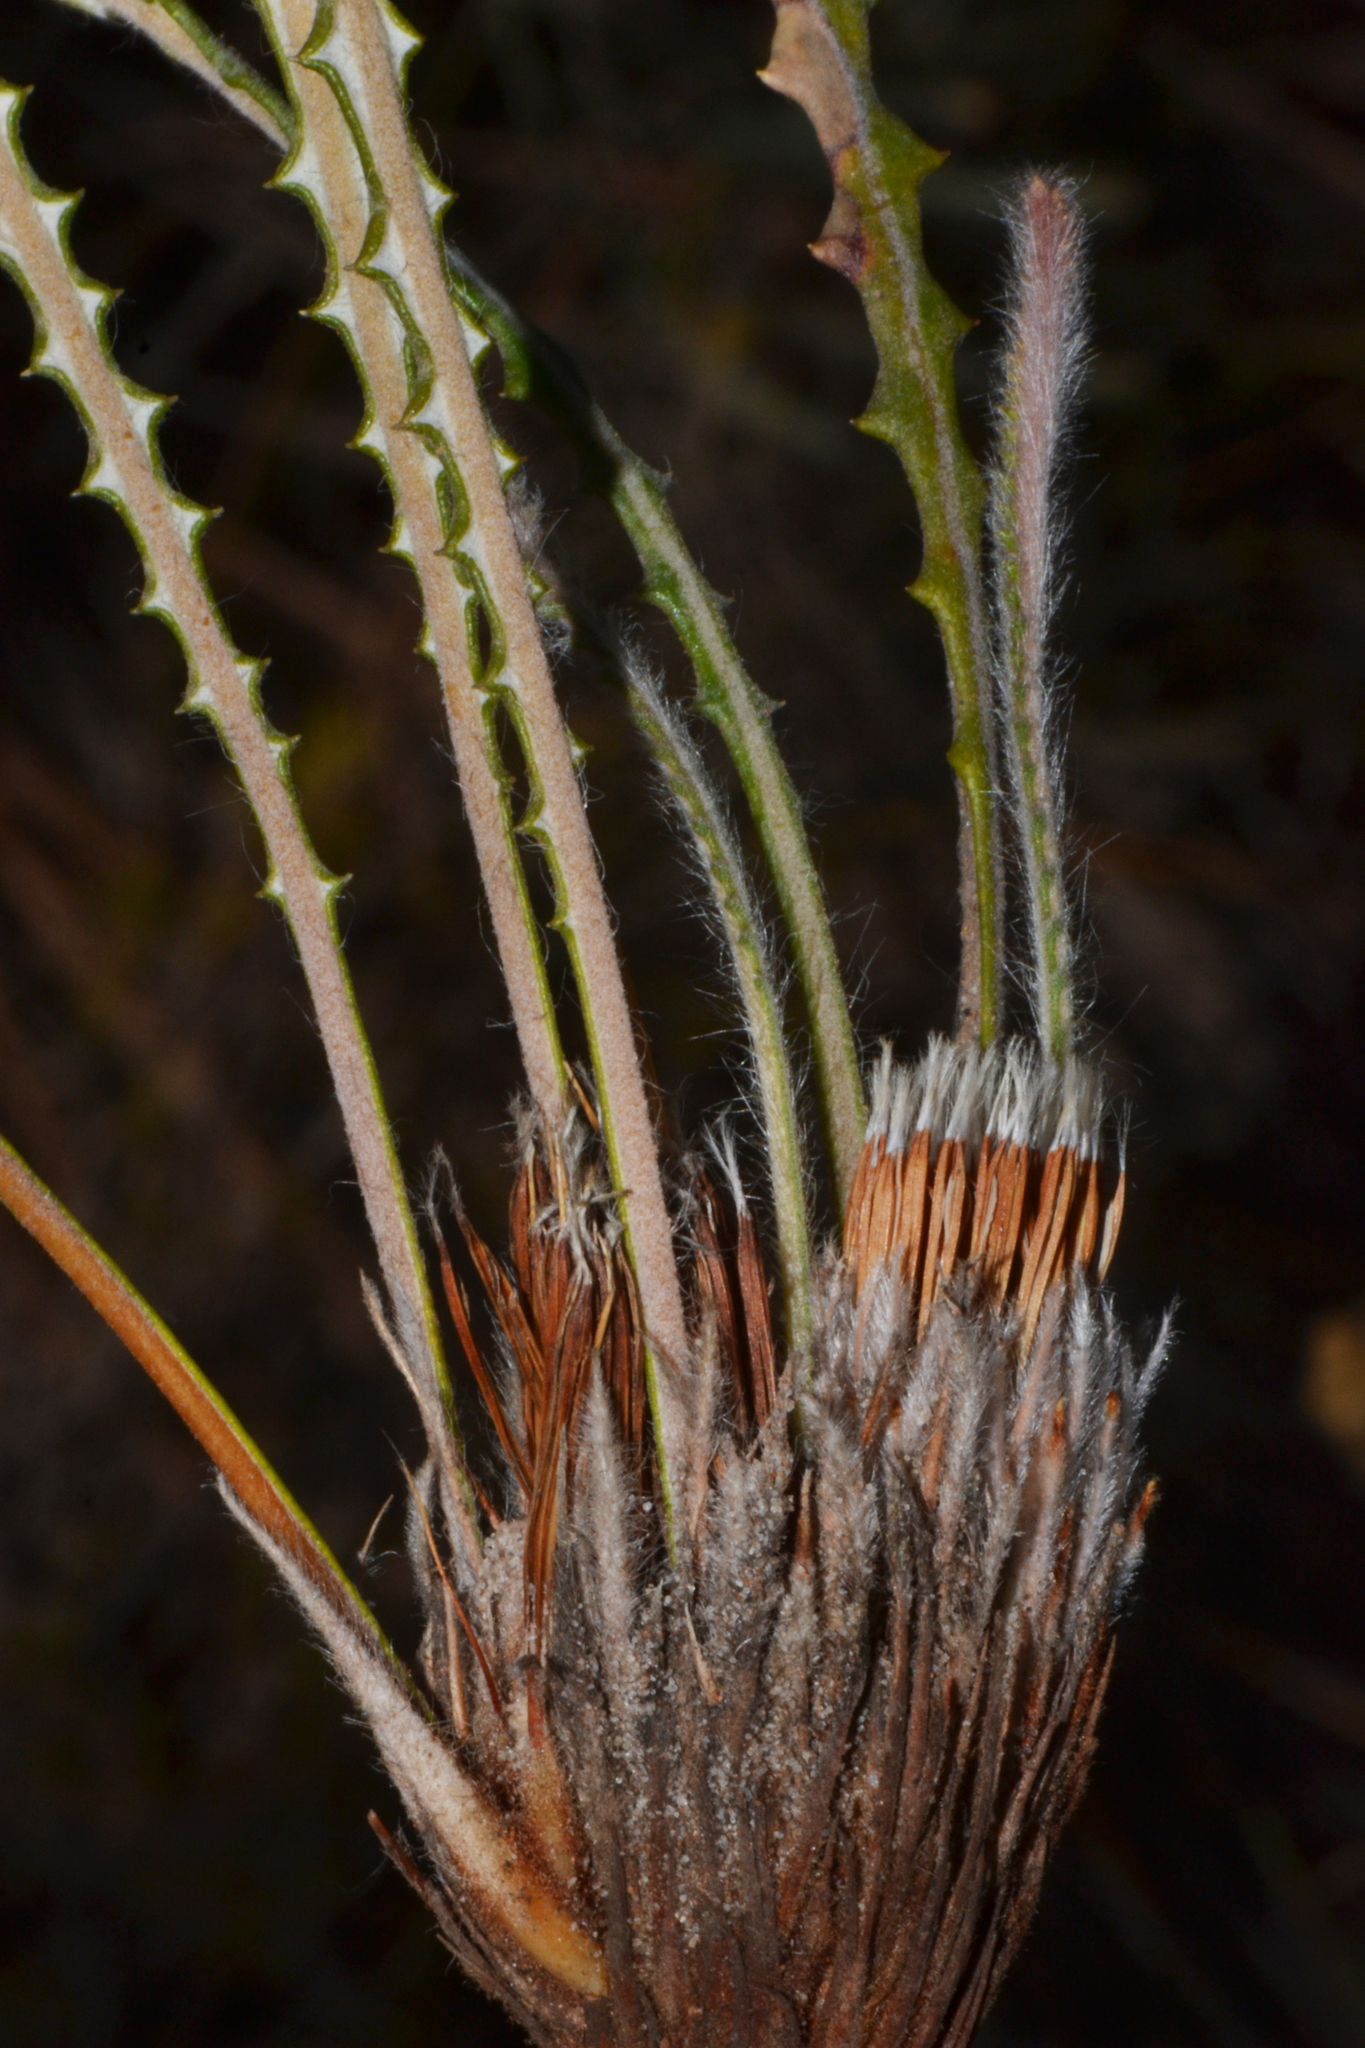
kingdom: Plantae
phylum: Tracheophyta
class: Magnoliopsida
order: Proteales
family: Proteaceae
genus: Banksia
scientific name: Banksia mimica
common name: Summer honeypot
